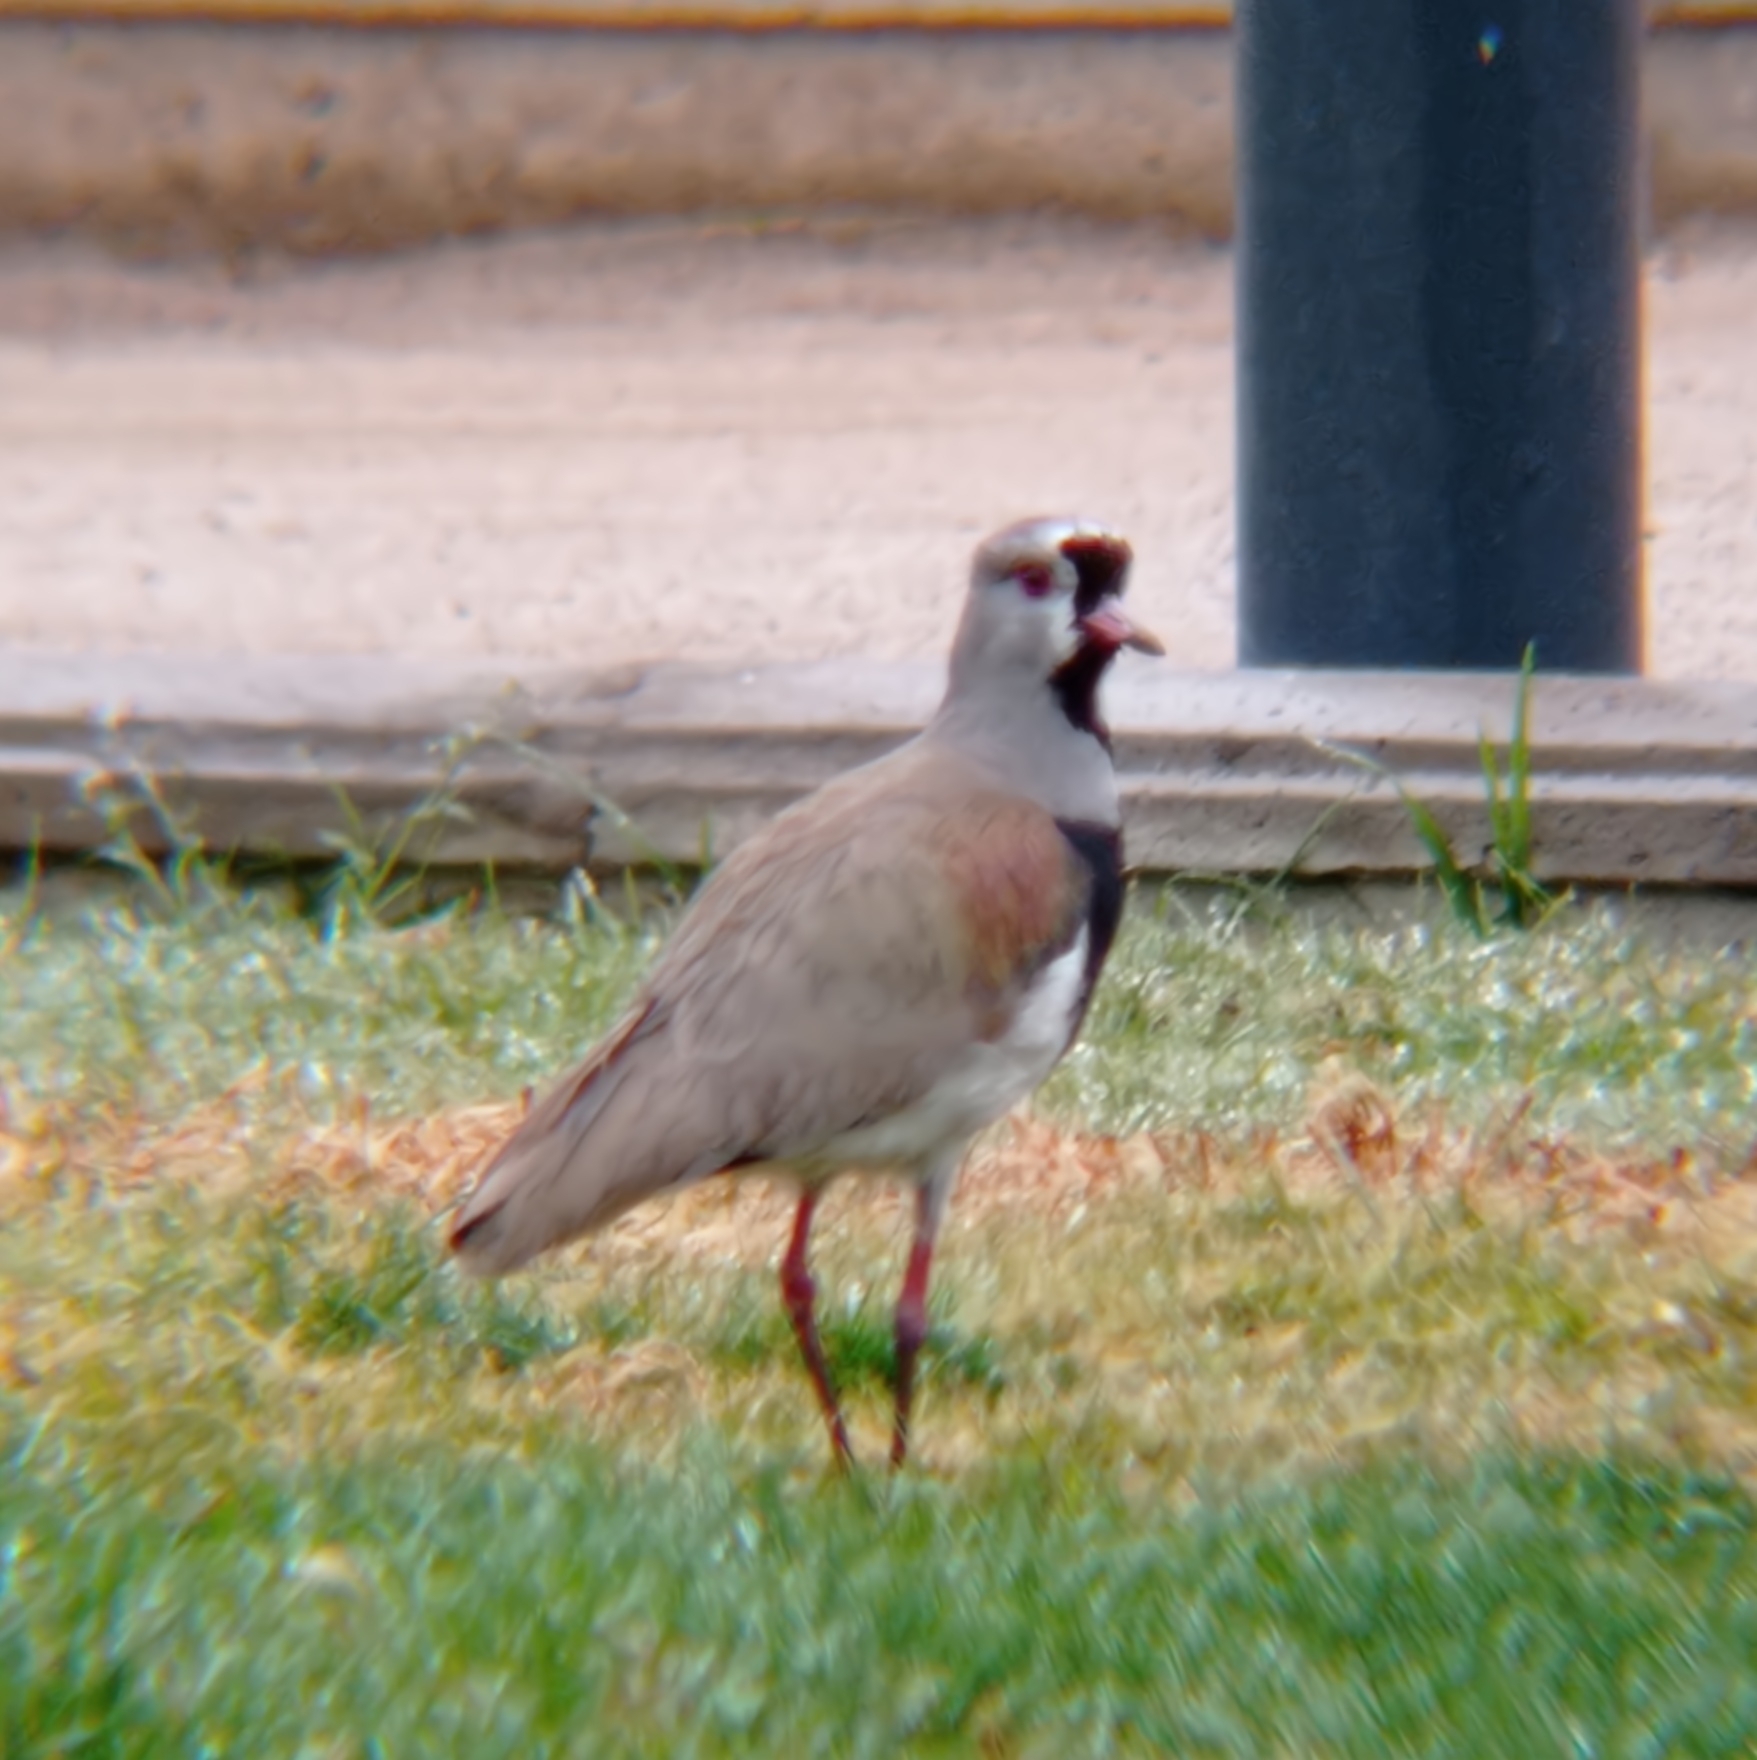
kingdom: Animalia
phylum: Chordata
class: Aves
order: Charadriiformes
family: Charadriidae
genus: Vanellus
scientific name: Vanellus chilensis
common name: Southern lapwing
